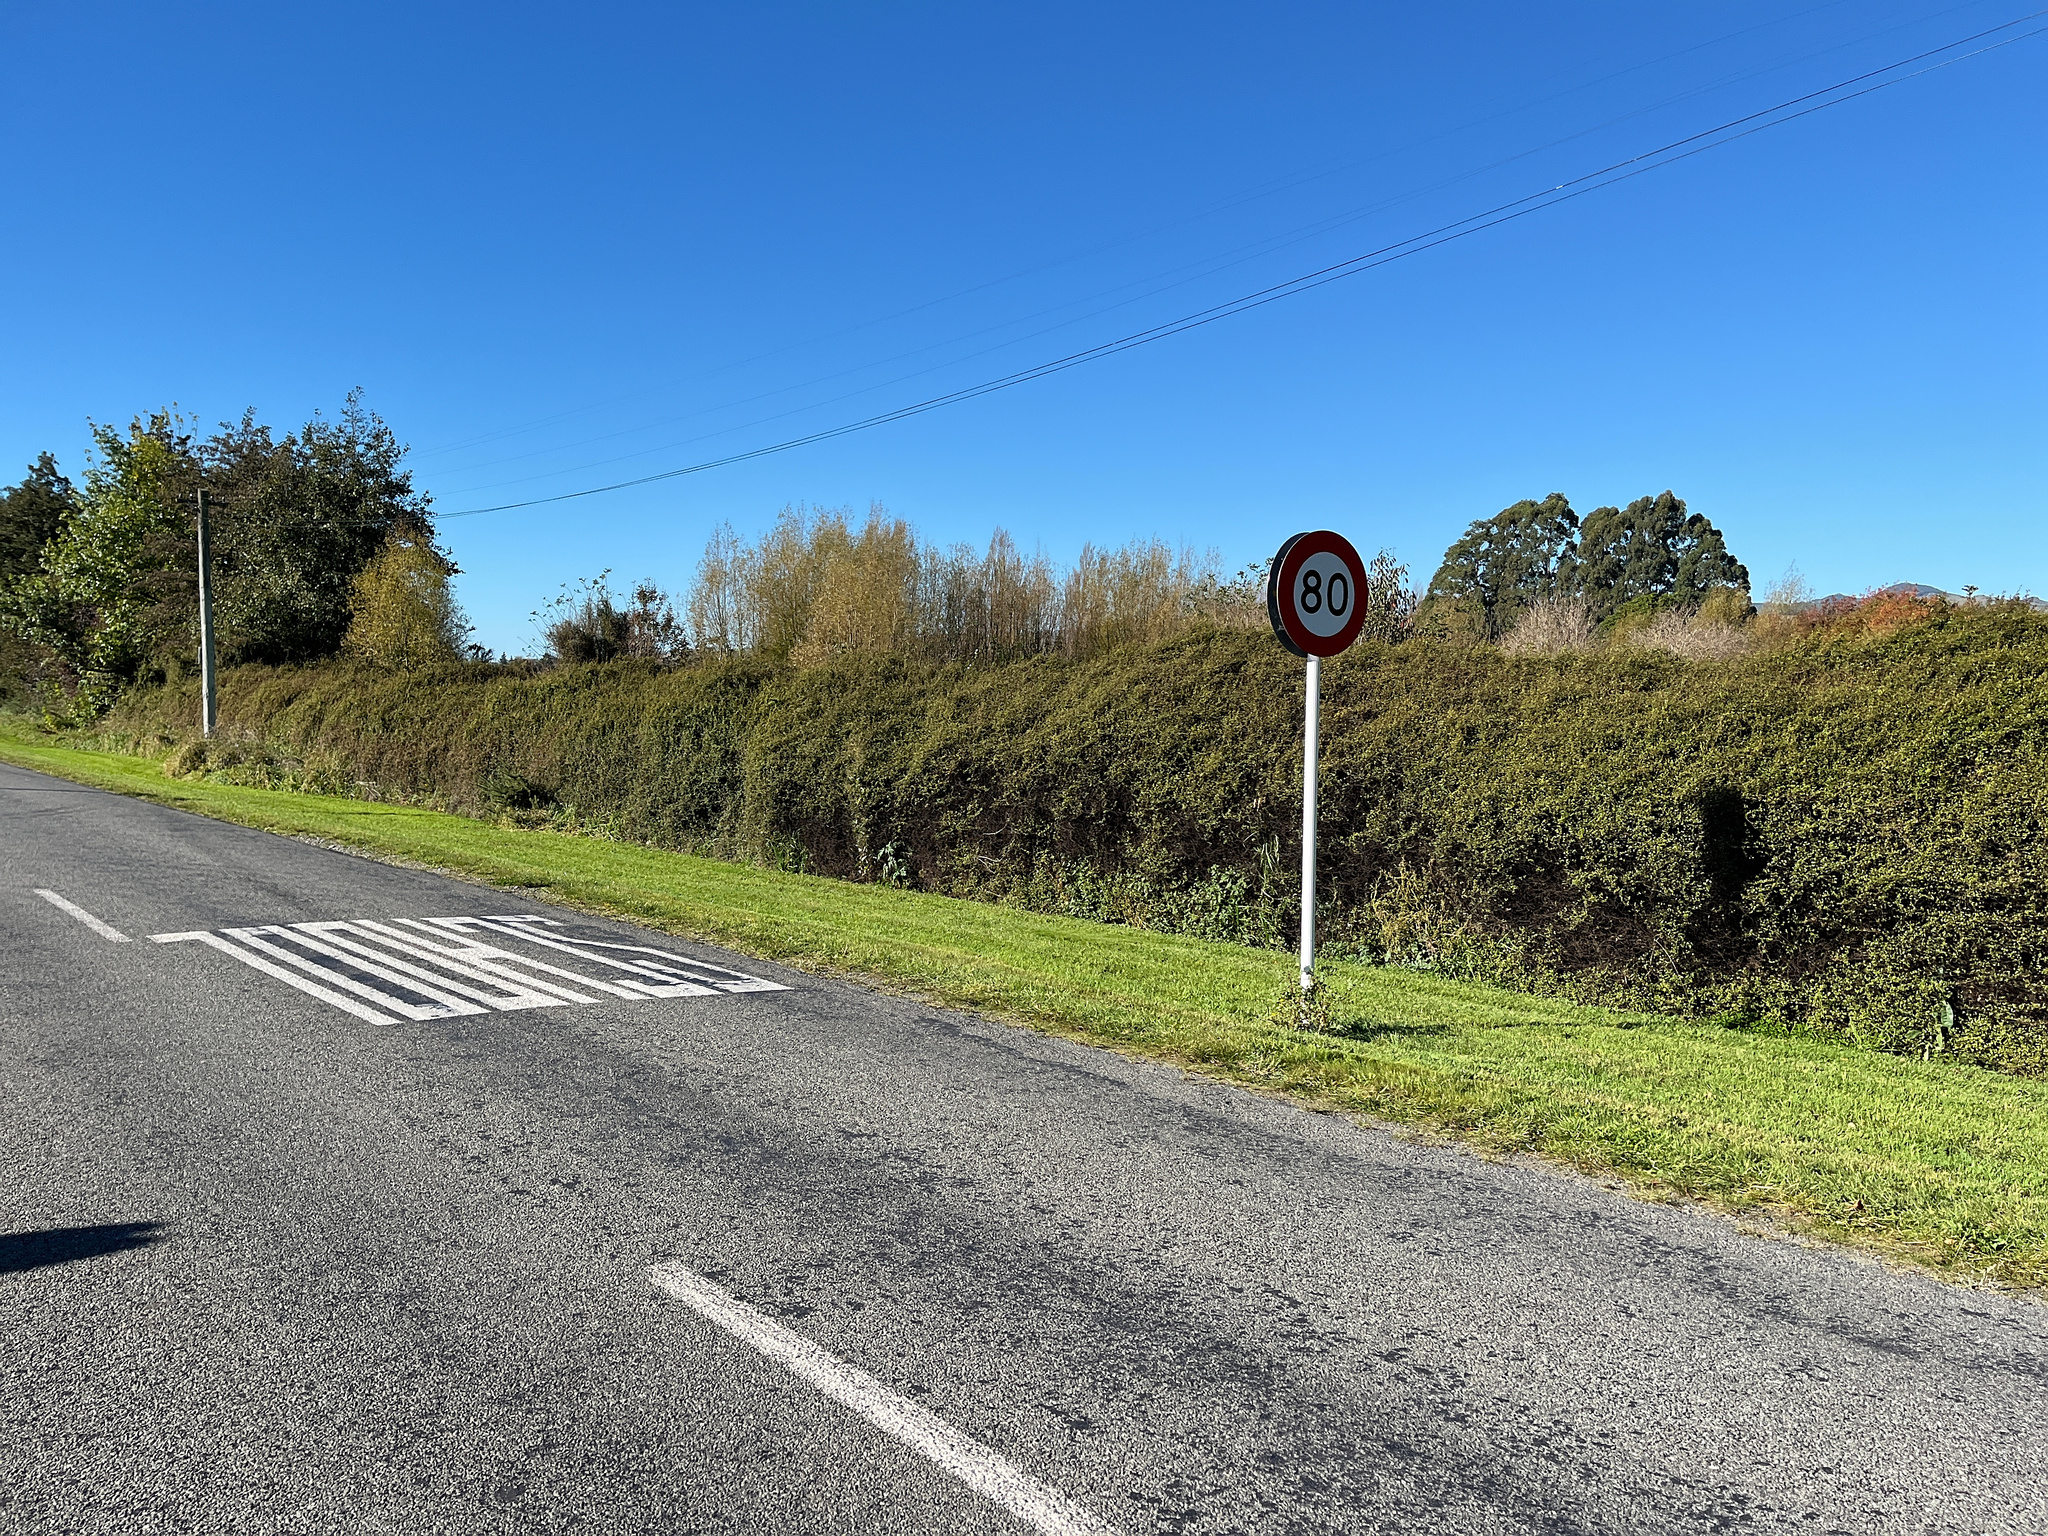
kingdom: Plantae
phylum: Tracheophyta
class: Magnoliopsida
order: Caryophyllales
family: Polygonaceae
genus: Muehlenbeckia
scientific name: Muehlenbeckia complexa
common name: Wireplant
